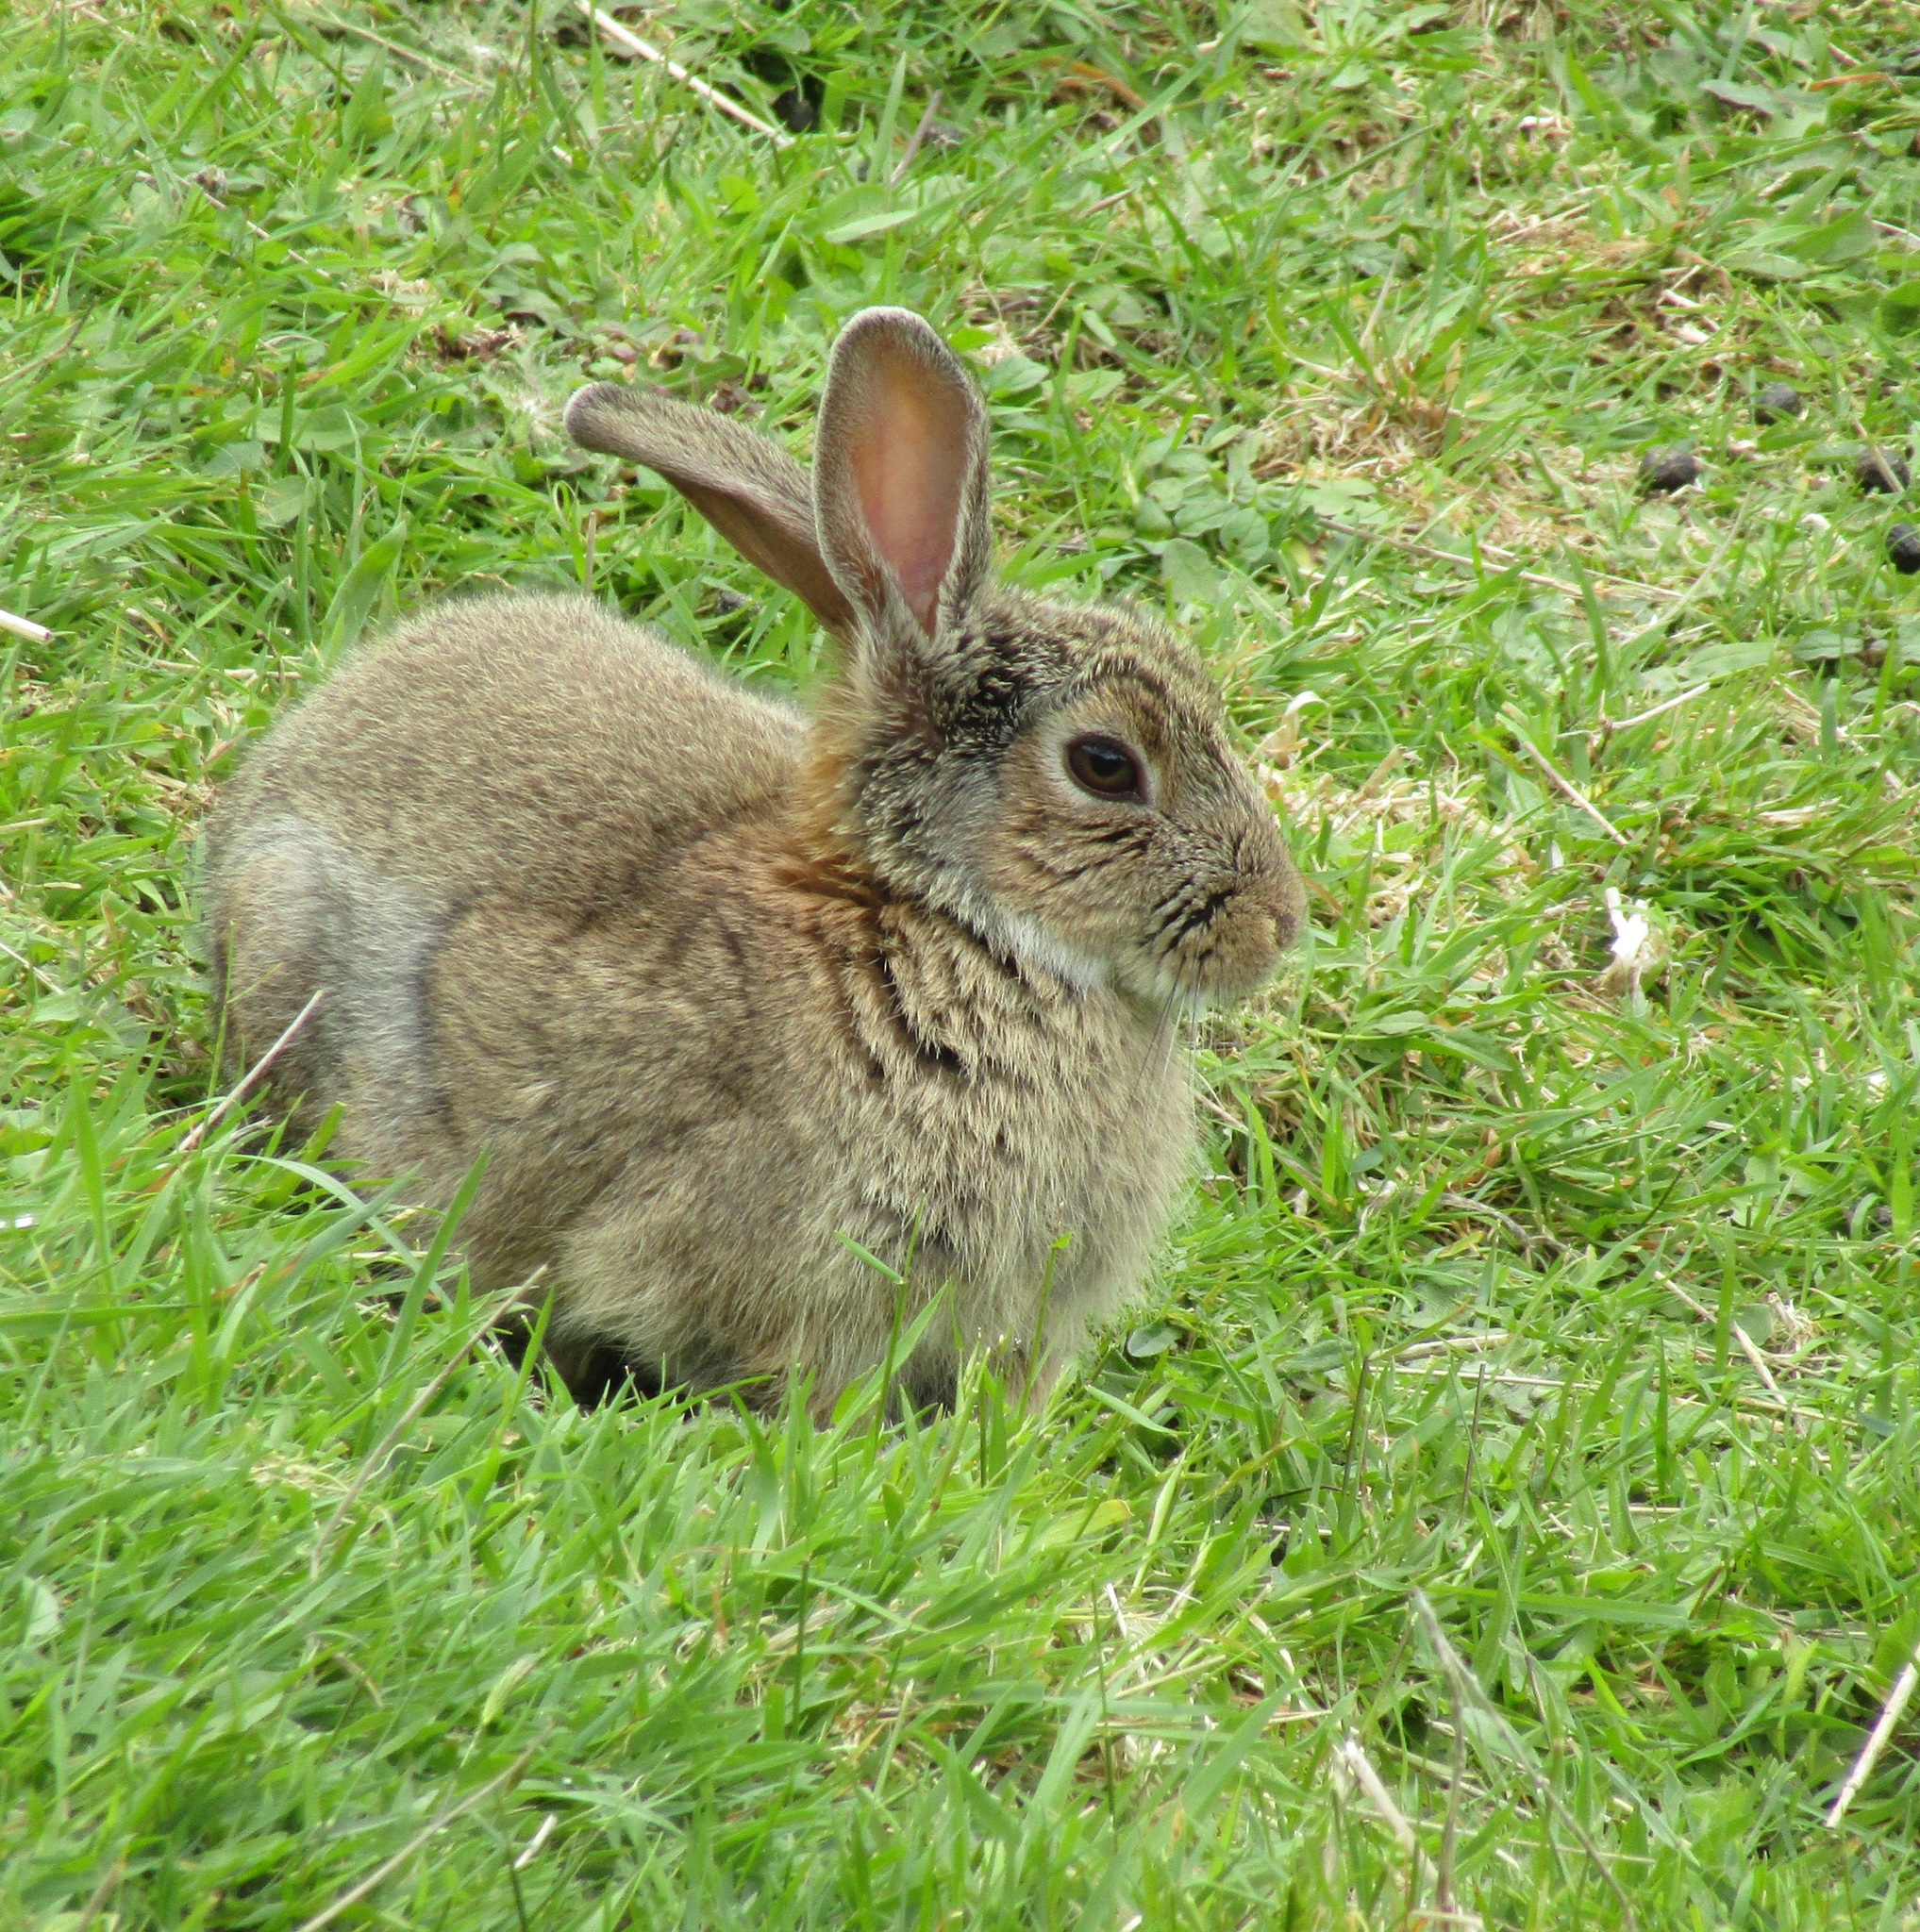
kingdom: Animalia
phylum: Chordata
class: Mammalia
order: Lagomorpha
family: Leporidae
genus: Oryctolagus
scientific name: Oryctolagus cuniculus
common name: European rabbit
